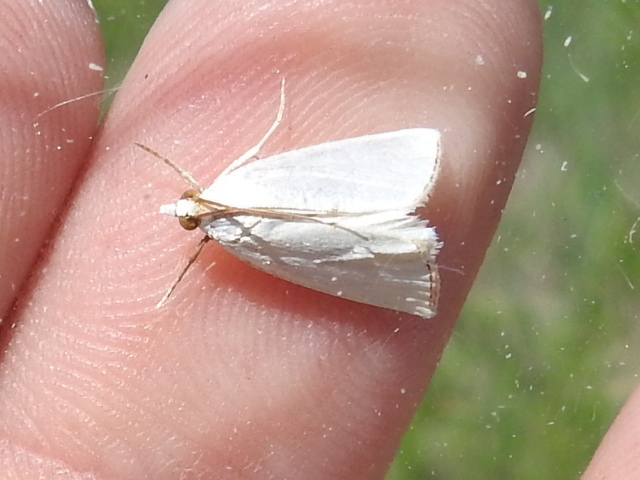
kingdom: Animalia
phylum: Arthropoda
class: Insecta
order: Lepidoptera
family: Crambidae
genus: Argyria
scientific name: Argyria nivalis
